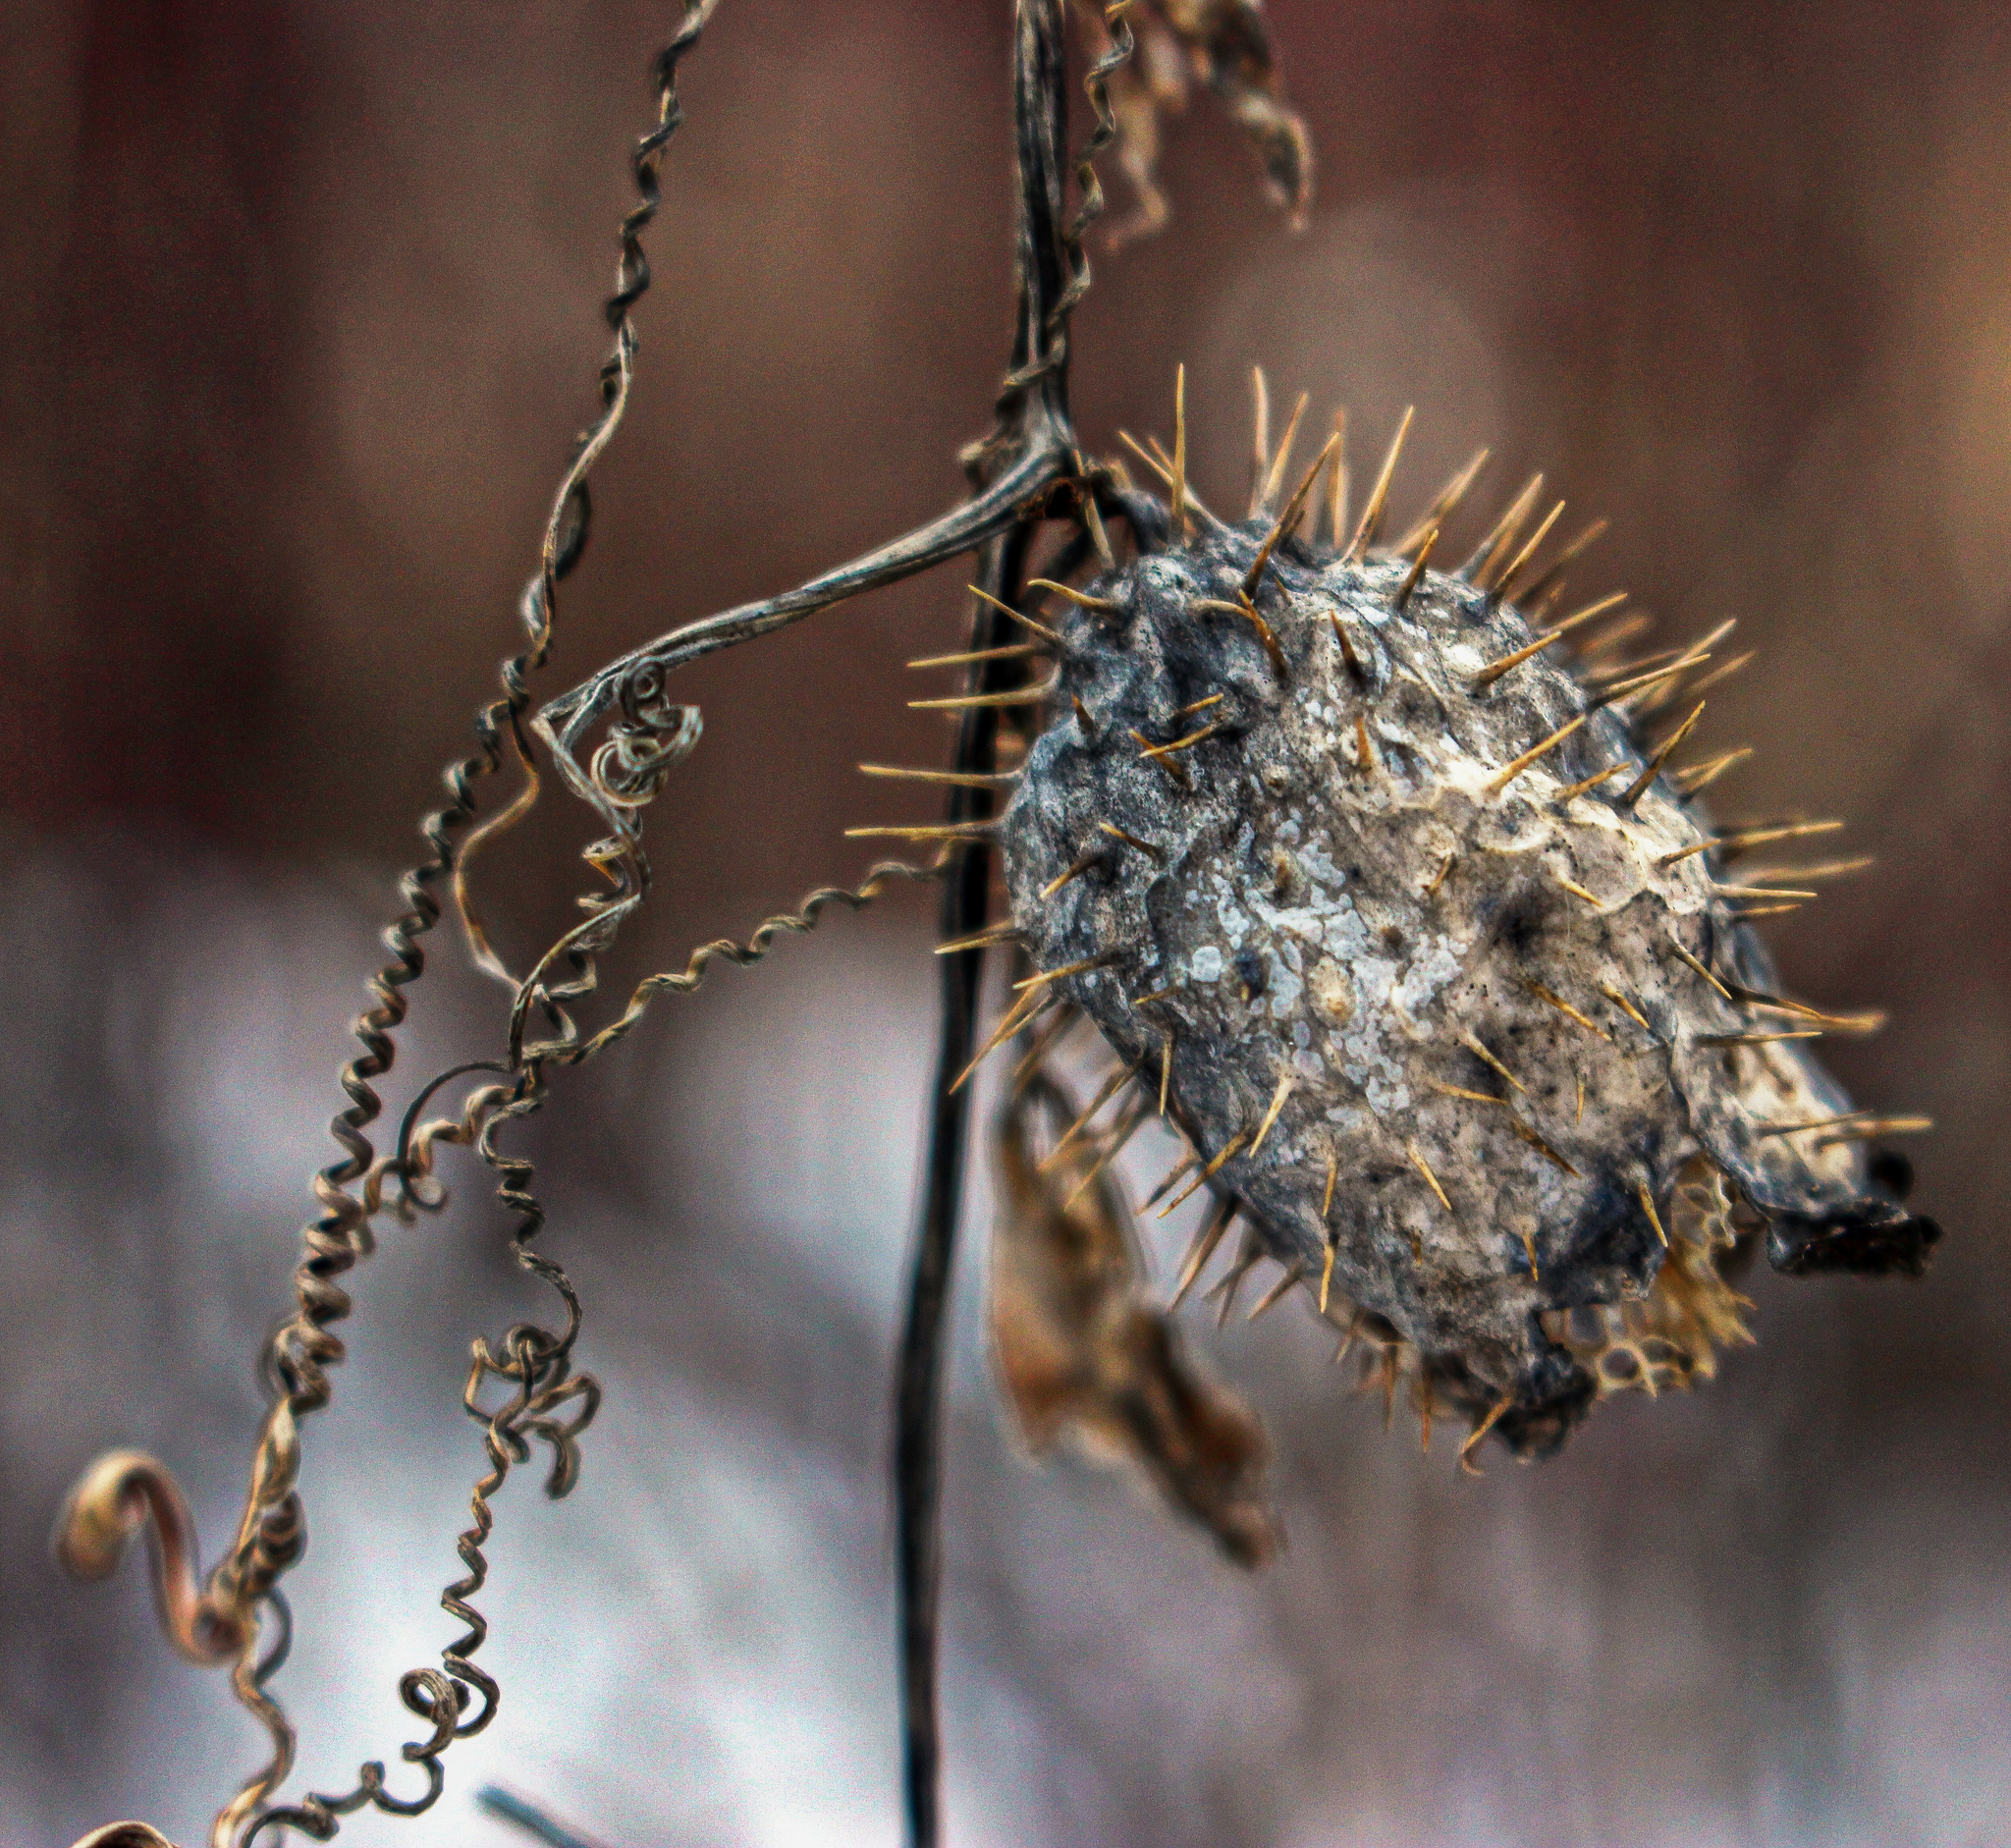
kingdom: Plantae
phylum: Tracheophyta
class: Magnoliopsida
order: Cucurbitales
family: Cucurbitaceae
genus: Echinocystis
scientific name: Echinocystis lobata
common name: Wild cucumber
